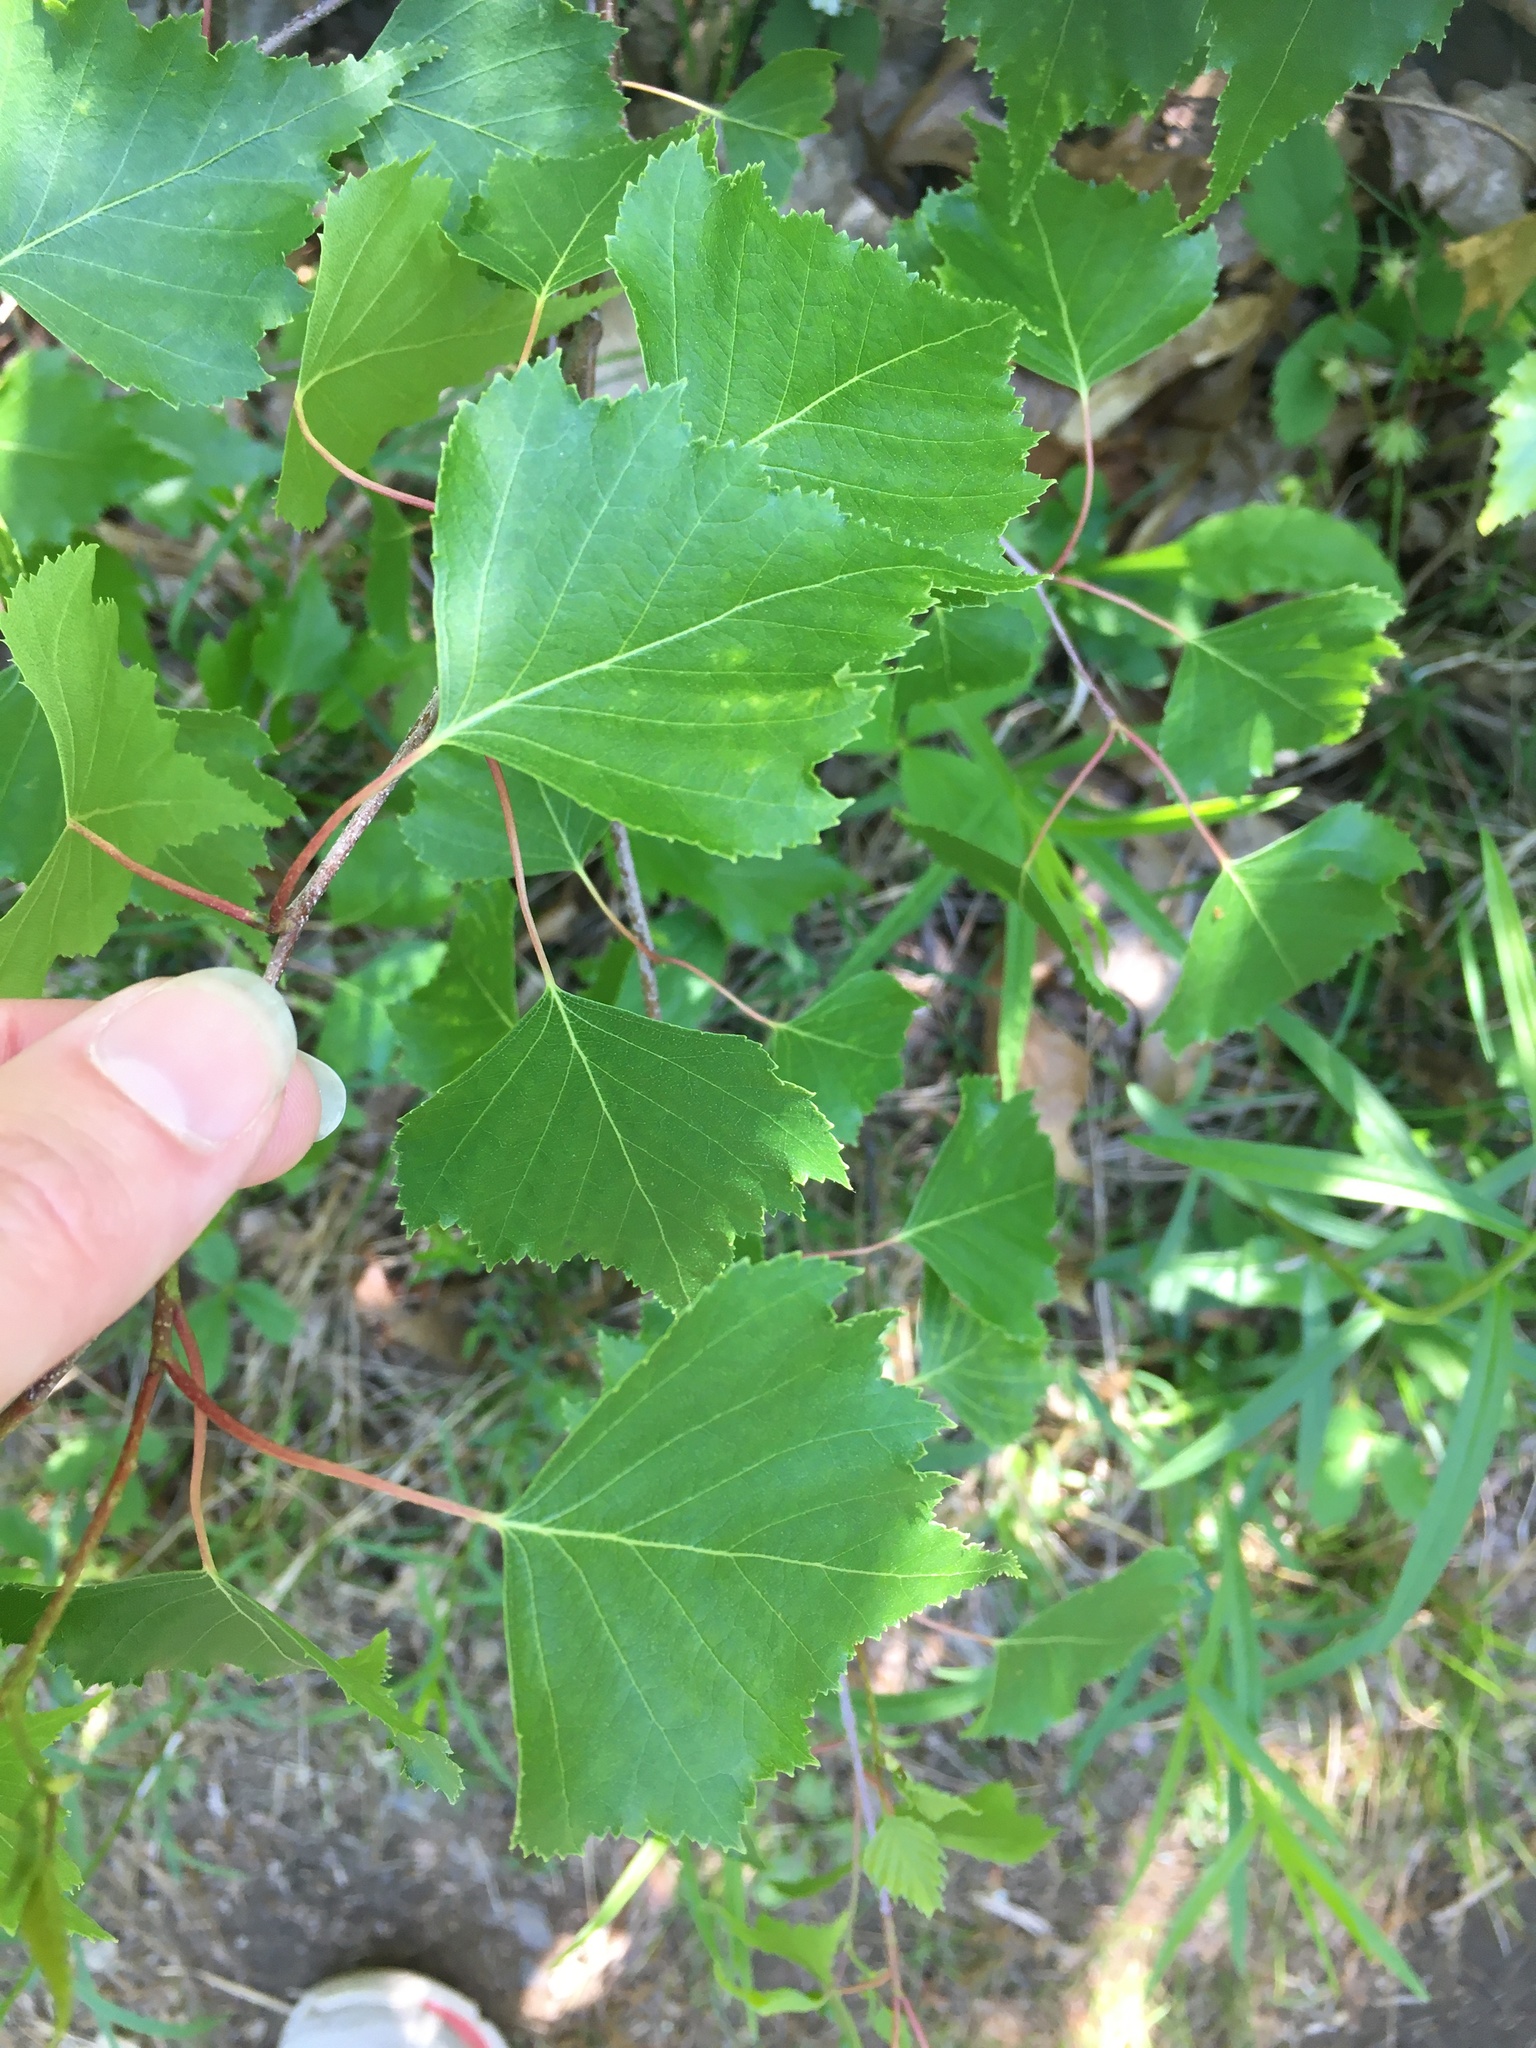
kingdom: Plantae
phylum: Tracheophyta
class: Magnoliopsida
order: Fagales
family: Betulaceae
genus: Betula
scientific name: Betula populifolia
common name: Fire birch
